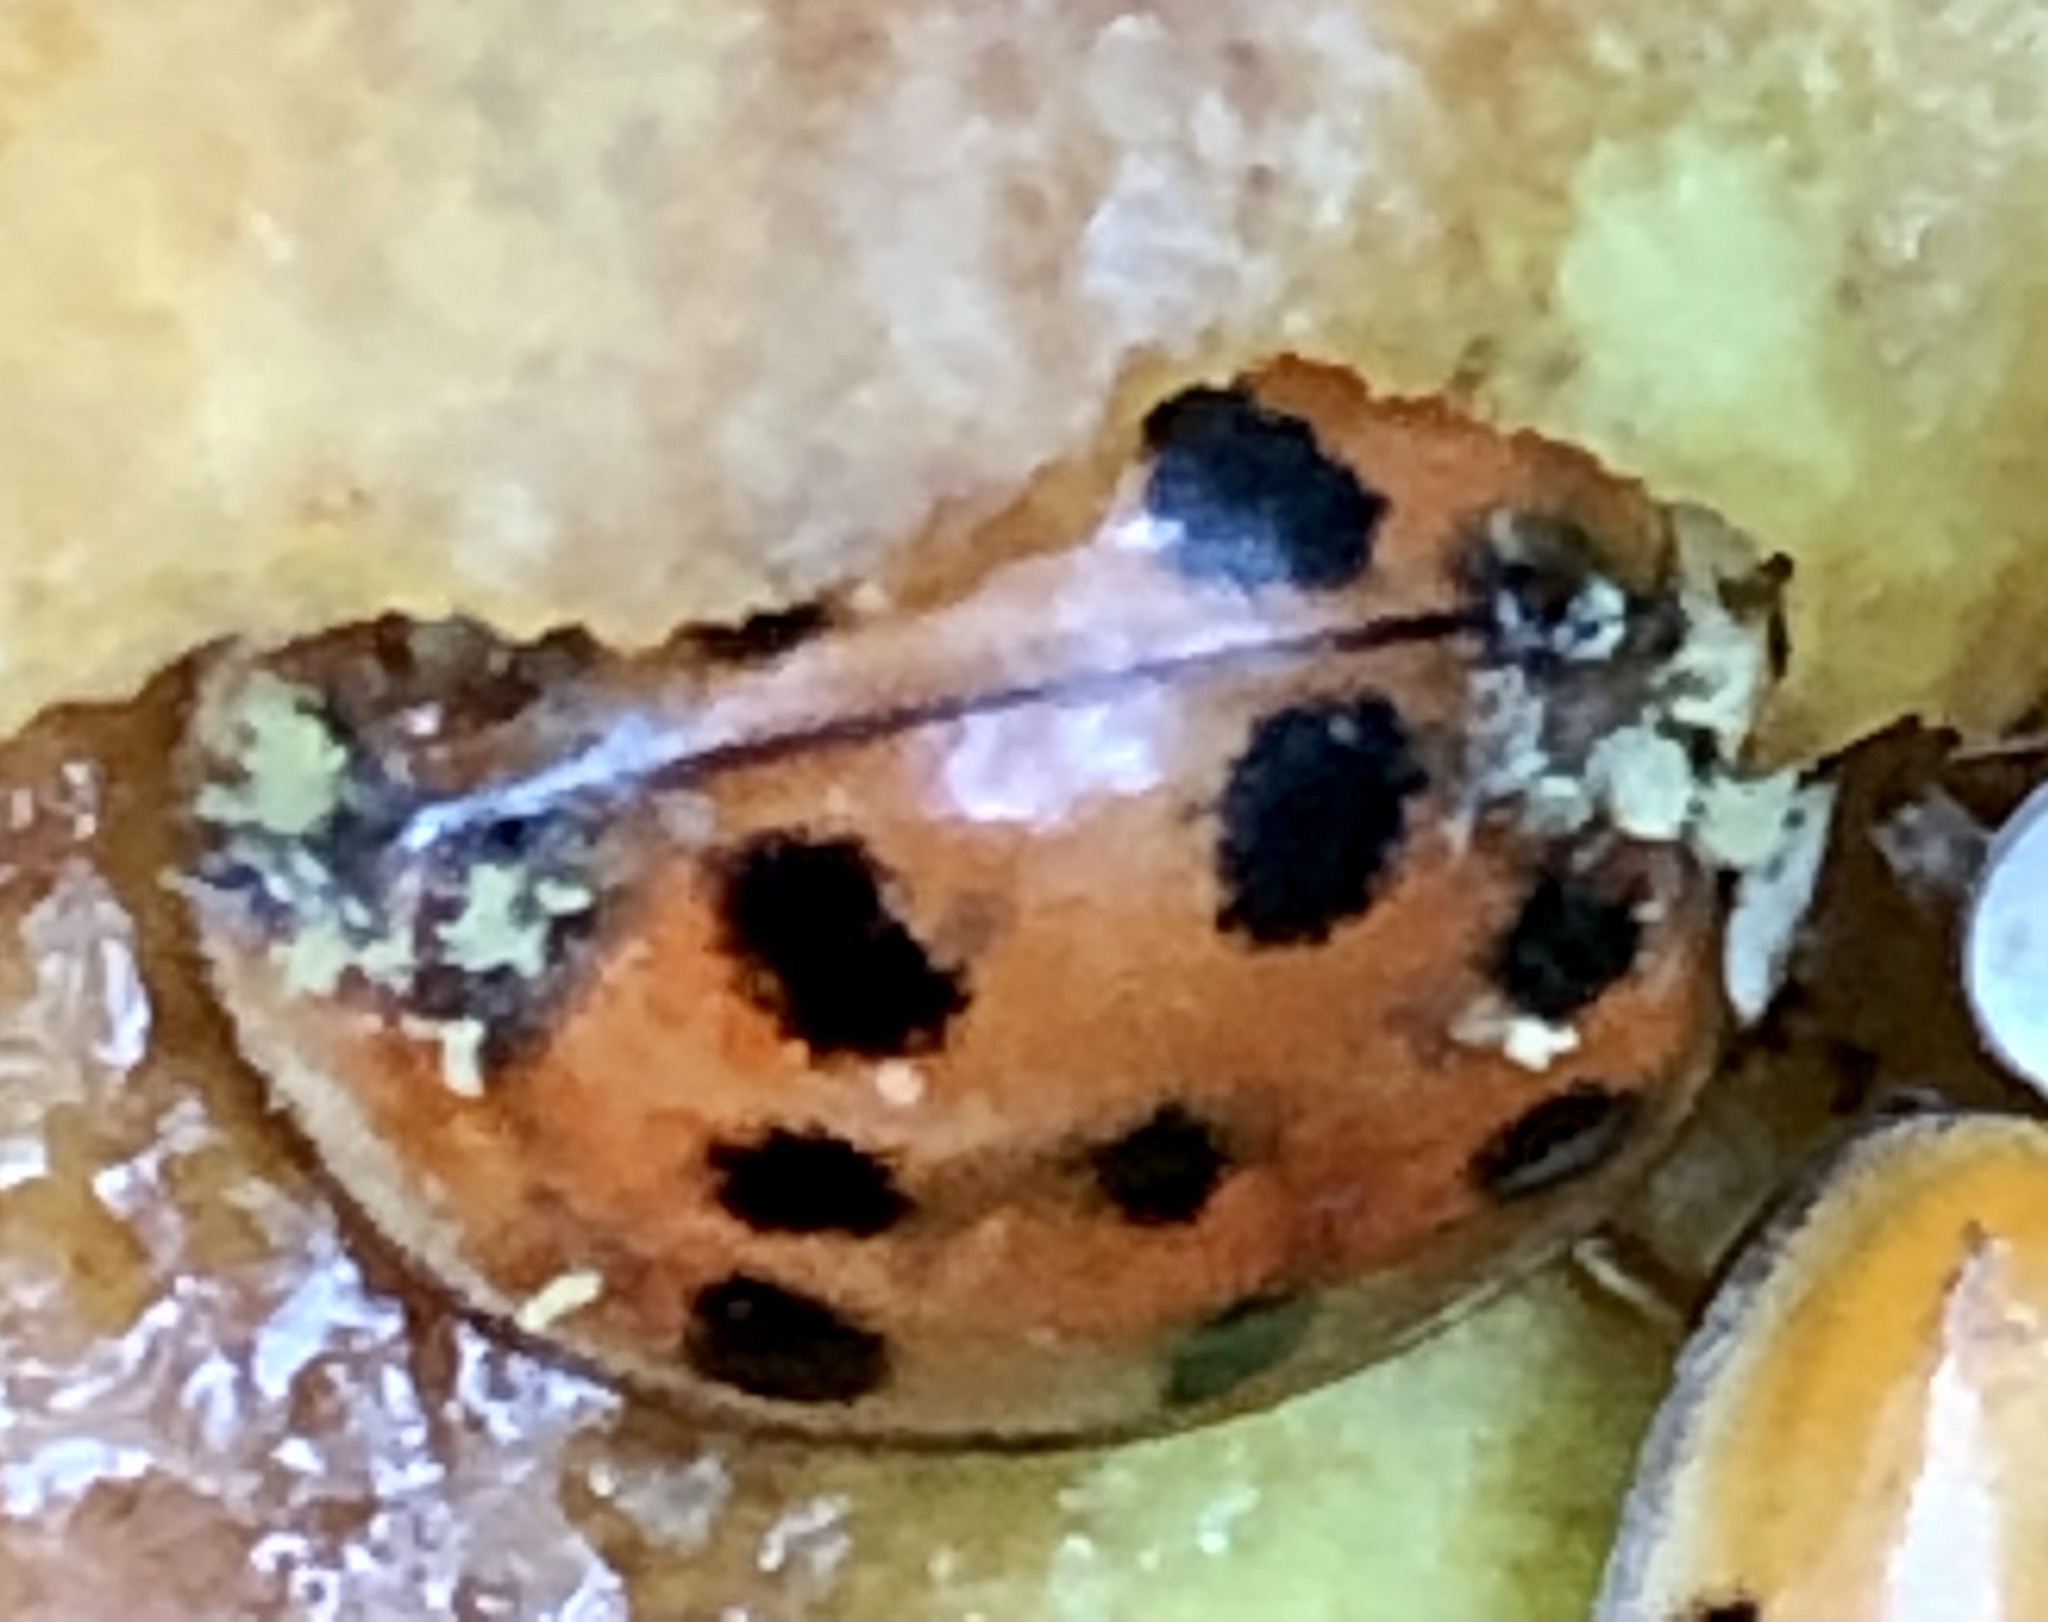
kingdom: Animalia
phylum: Arthropoda
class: Insecta
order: Coleoptera
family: Coccinellidae
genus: Harmonia
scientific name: Harmonia axyridis
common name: Harlequin ladybird
